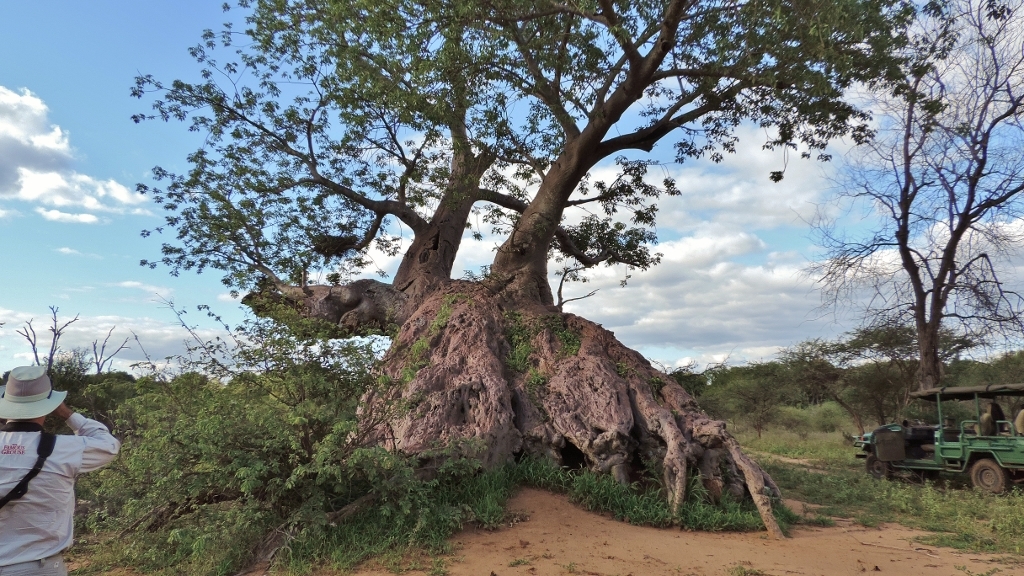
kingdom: Plantae
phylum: Tracheophyta
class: Magnoliopsida
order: Malvales
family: Malvaceae
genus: Adansonia
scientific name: Adansonia digitata
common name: Dead-rat-tree
